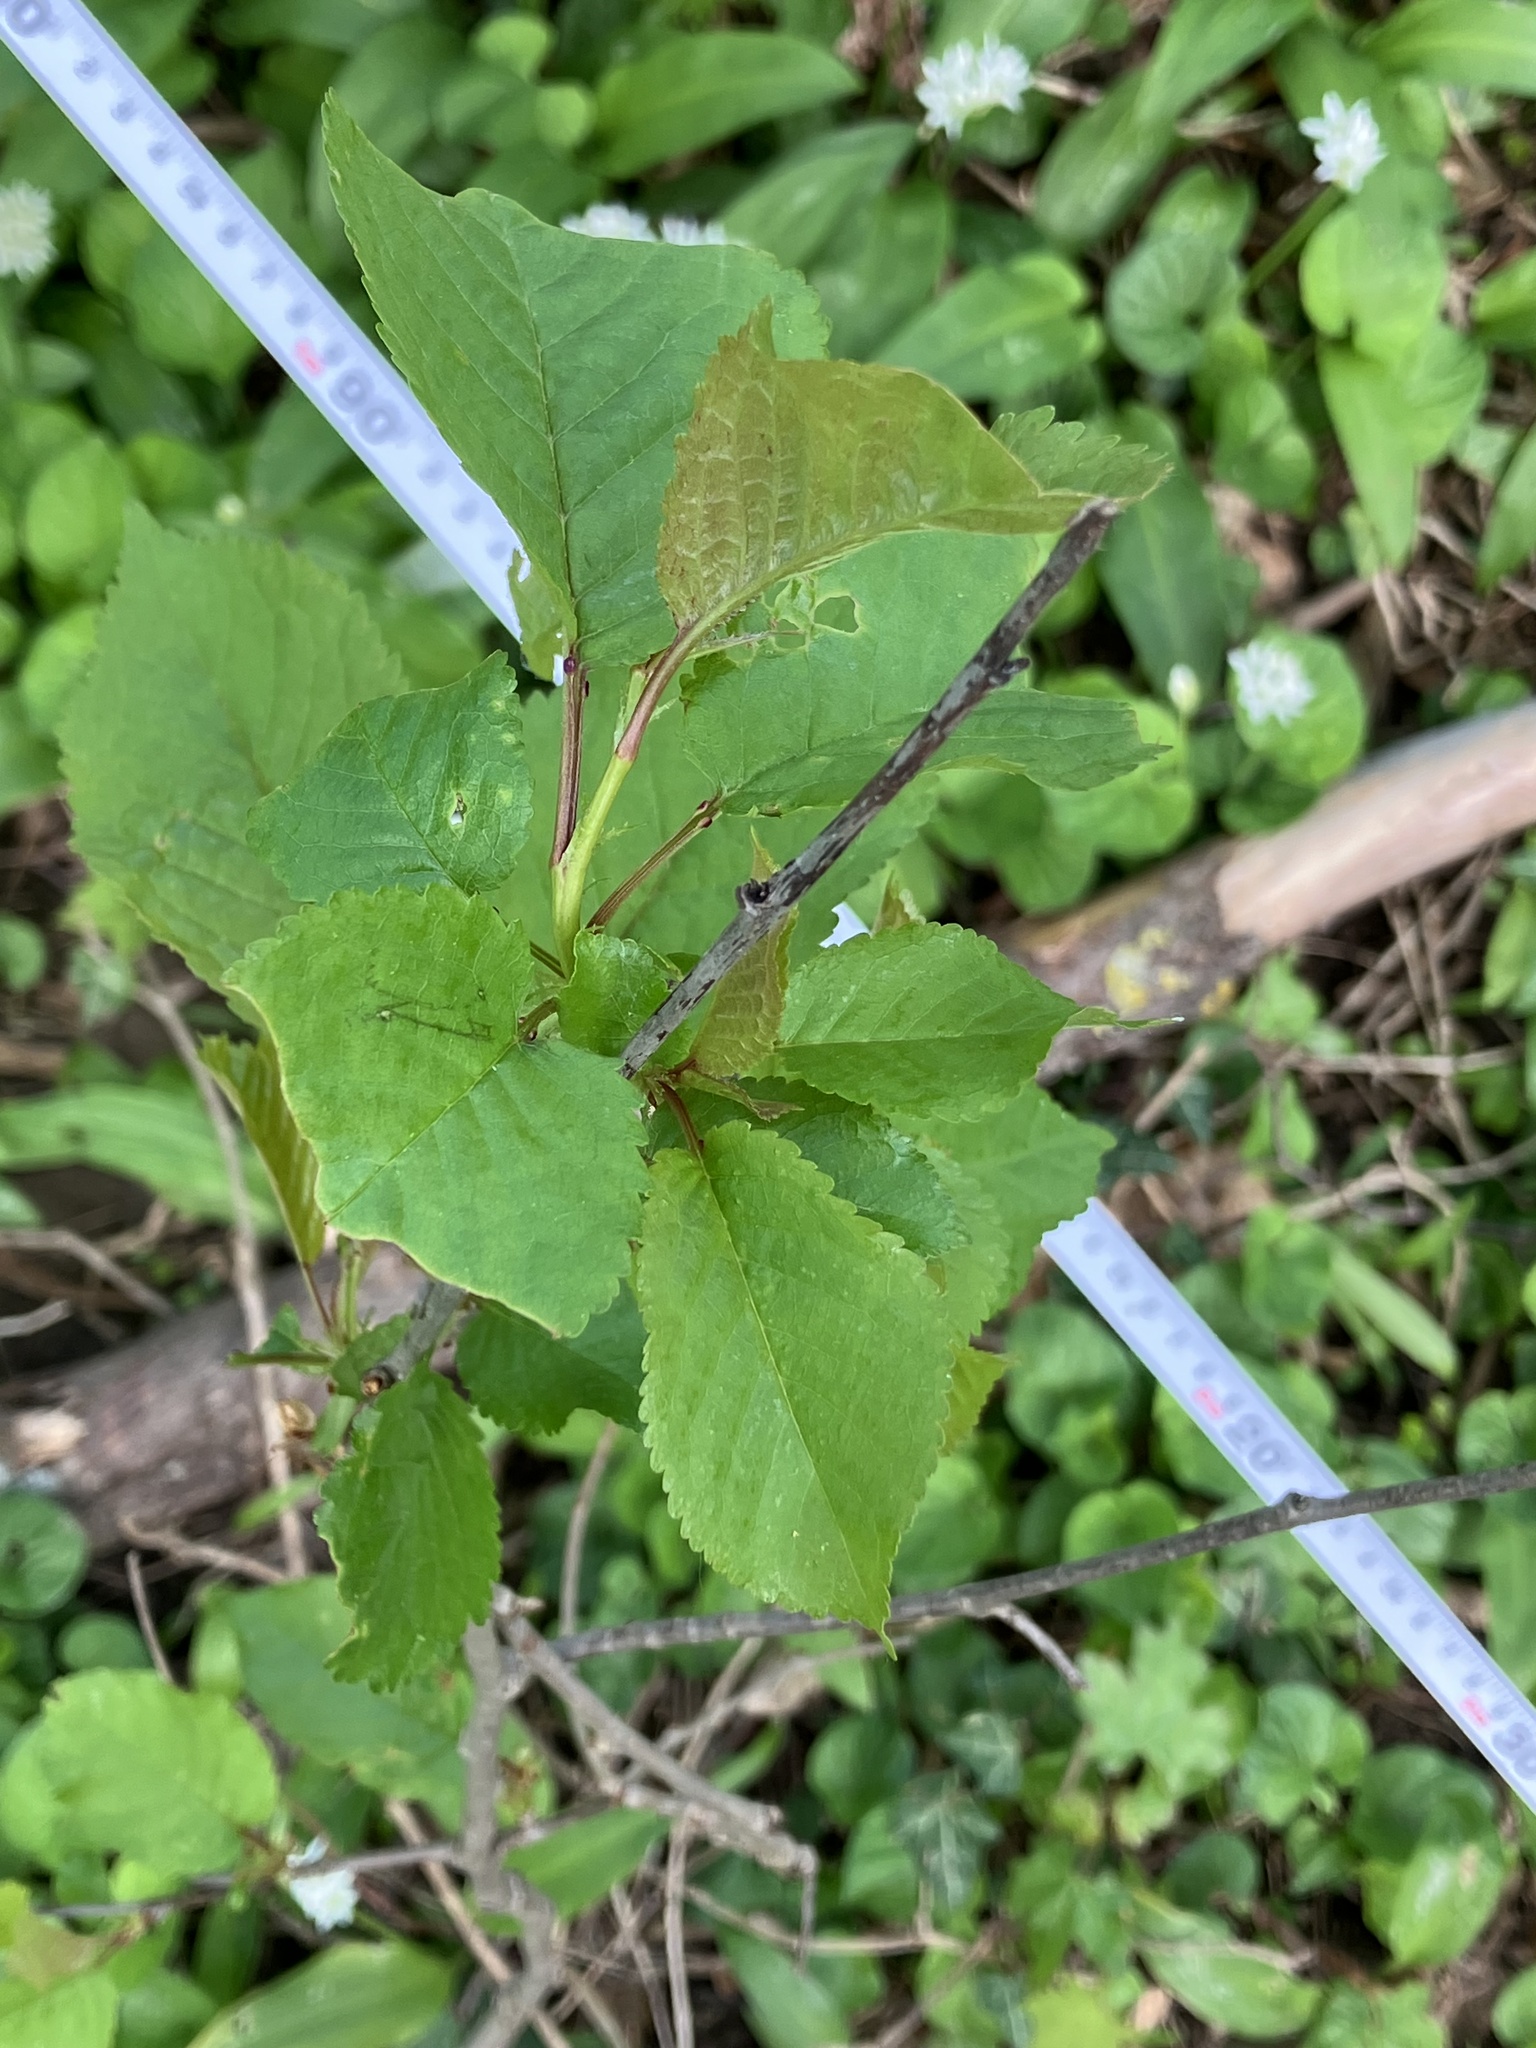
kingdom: Plantae
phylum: Tracheophyta
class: Magnoliopsida
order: Rosales
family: Rosaceae
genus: Prunus
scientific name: Prunus avium
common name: Sweet cherry
